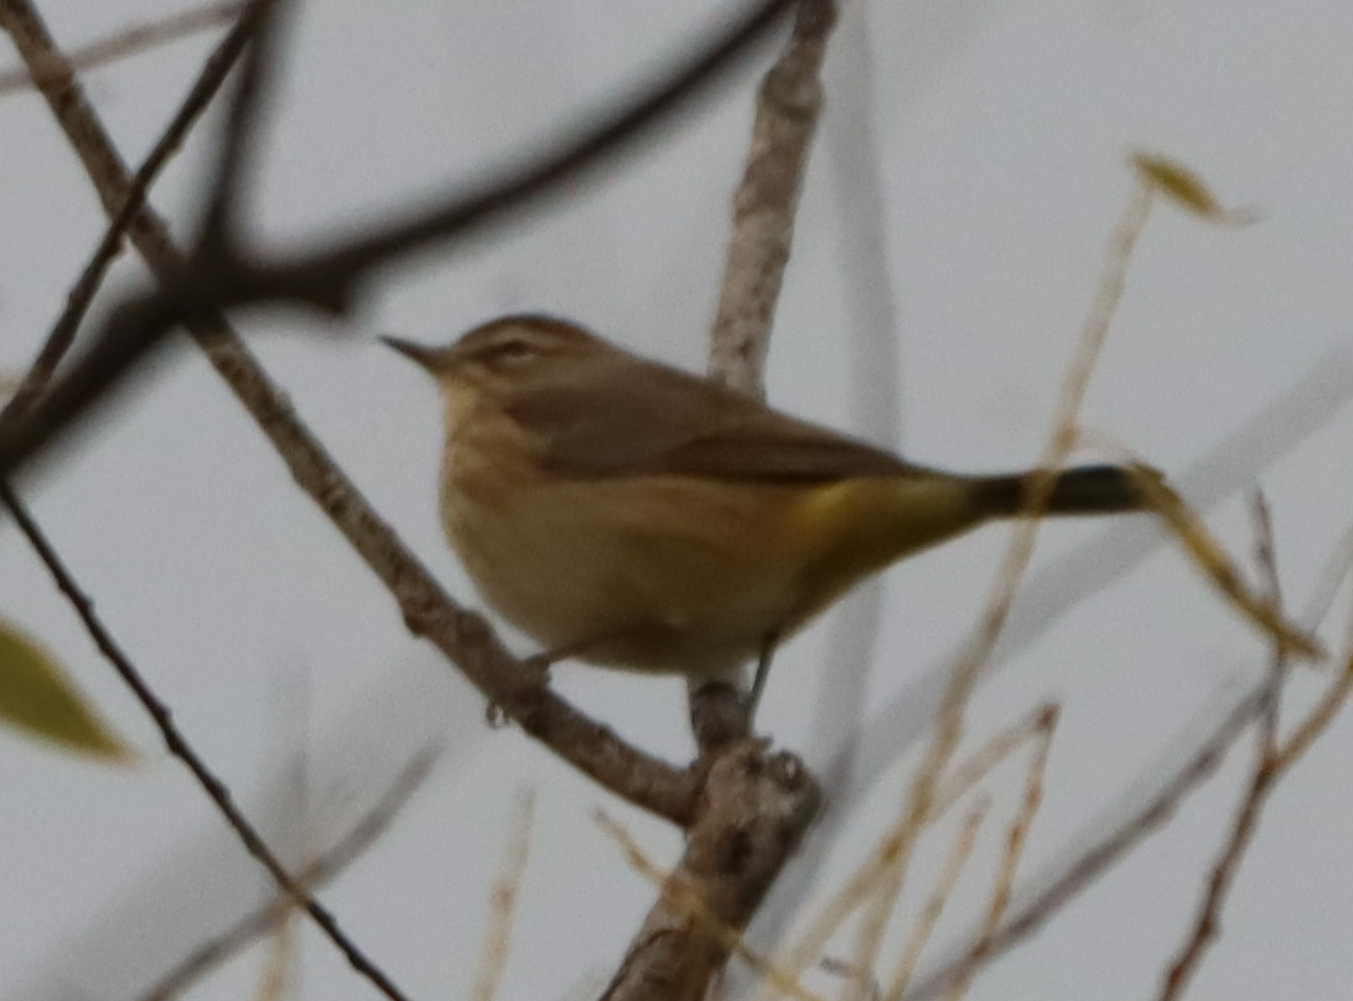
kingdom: Animalia
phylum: Chordata
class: Aves
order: Passeriformes
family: Parulidae
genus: Setophaga
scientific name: Setophaga palmarum
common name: Palm warbler
